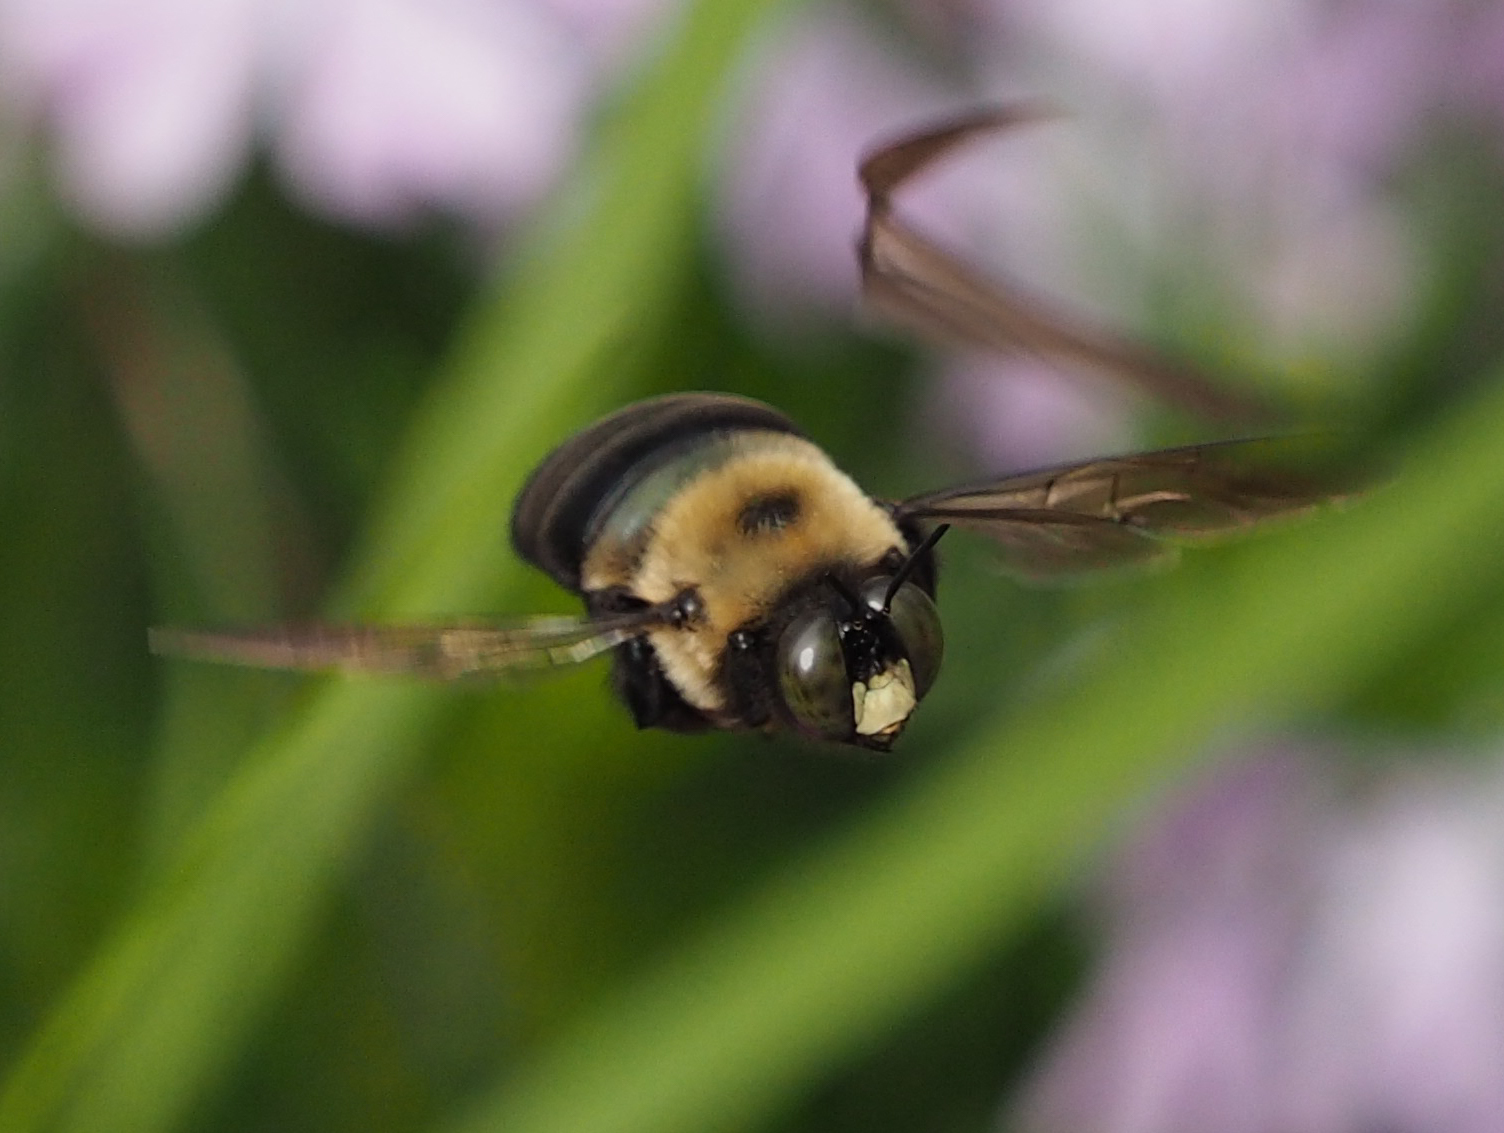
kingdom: Animalia
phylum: Arthropoda
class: Insecta
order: Hymenoptera
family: Apidae
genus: Xylocopa
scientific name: Xylocopa virginica
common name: Carpenter bee
